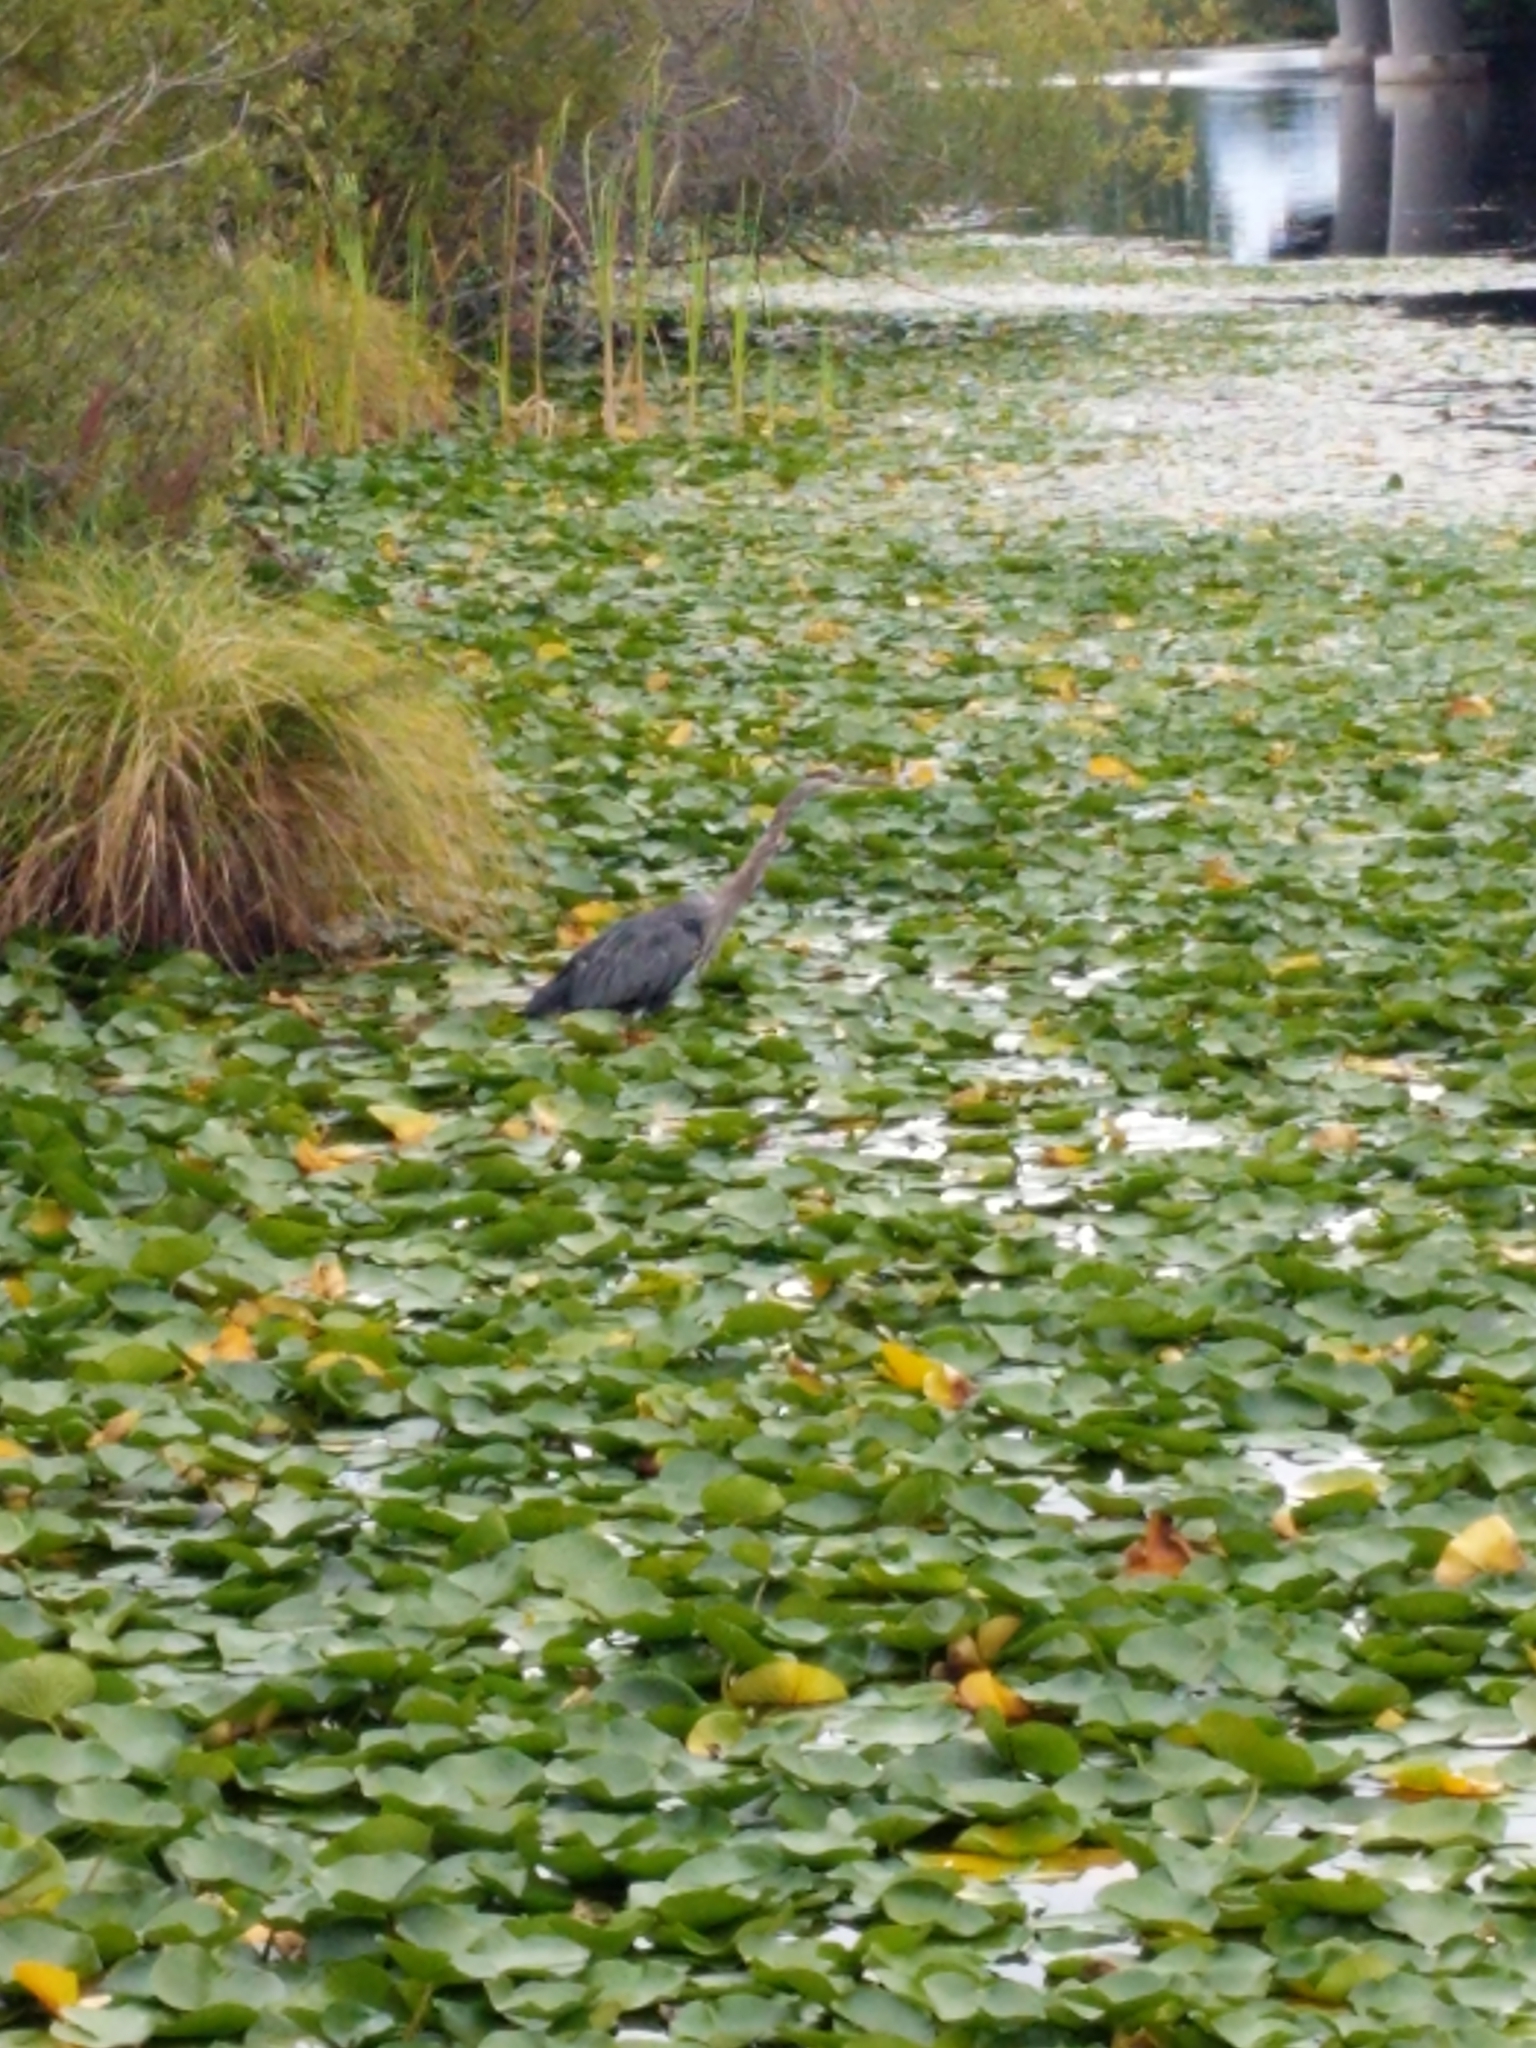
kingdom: Animalia
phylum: Chordata
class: Aves
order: Pelecaniformes
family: Ardeidae
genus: Ardea
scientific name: Ardea herodias
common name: Great blue heron
